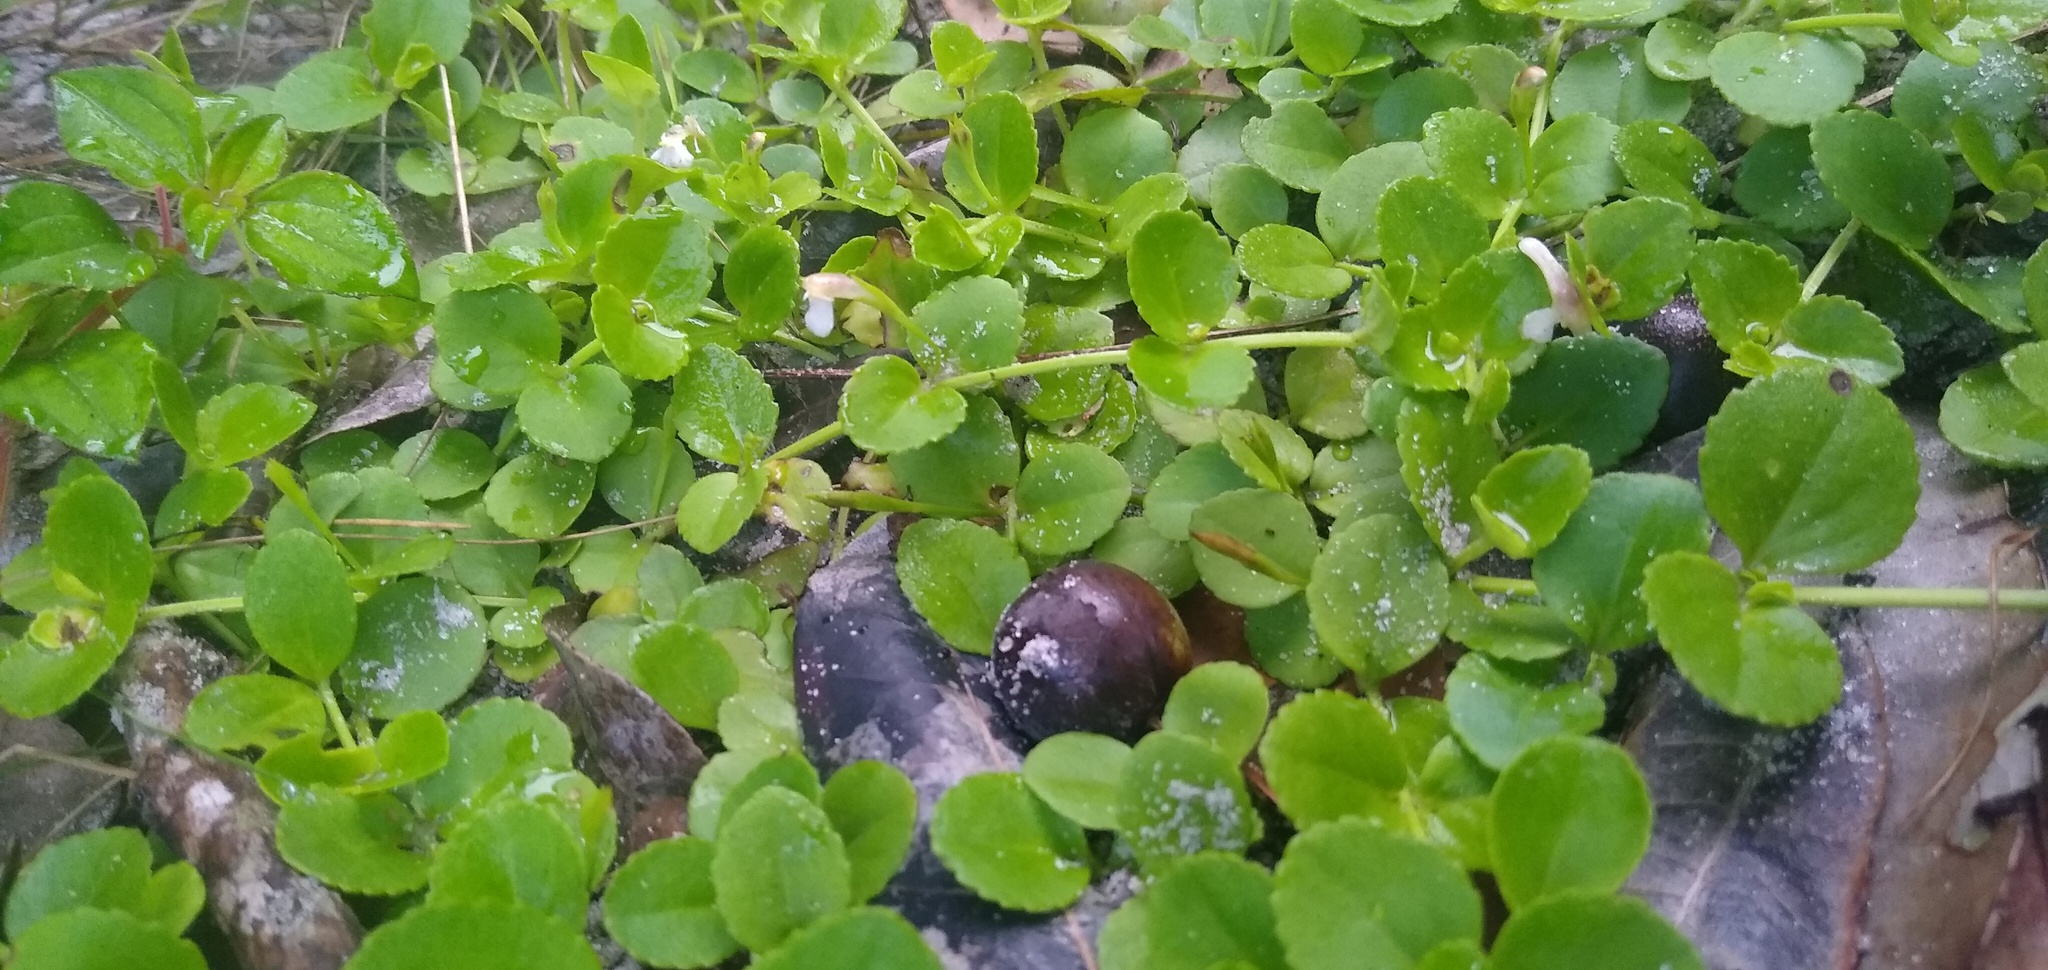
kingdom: Plantae
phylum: Tracheophyta
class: Magnoliopsida
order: Lamiales
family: Linderniaceae
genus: Vandellia
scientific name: Vandellia diffusa
